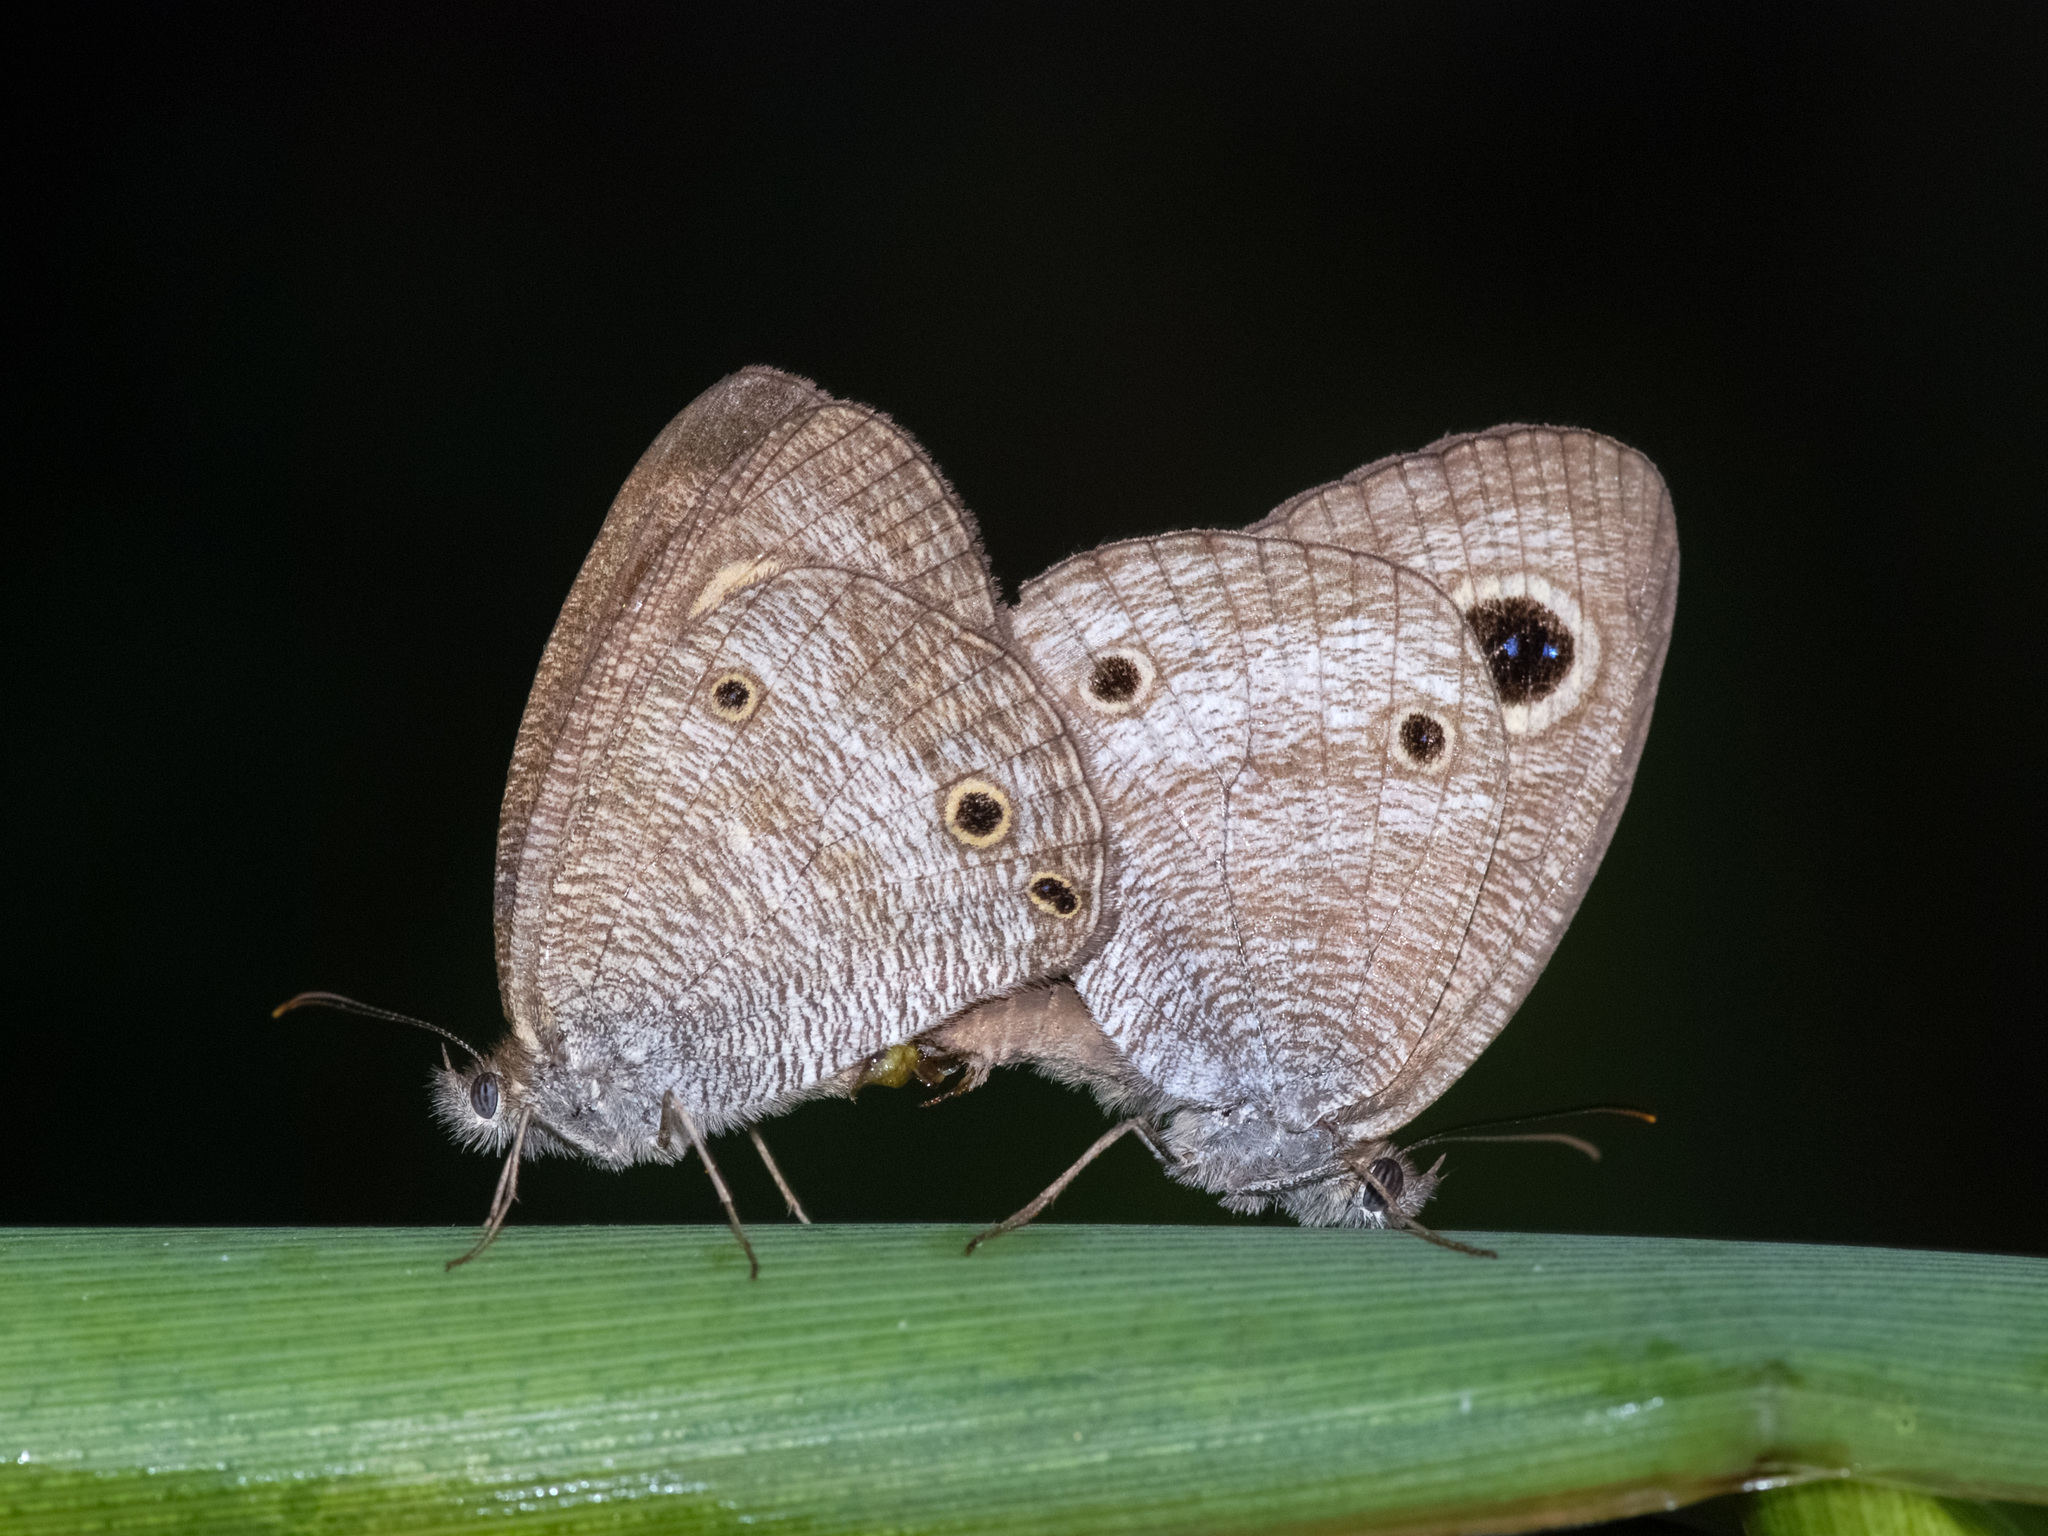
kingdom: Animalia
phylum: Arthropoda
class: Insecta
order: Lepidoptera
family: Nymphalidae
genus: Ypthima
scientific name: Ypthima pandocus
